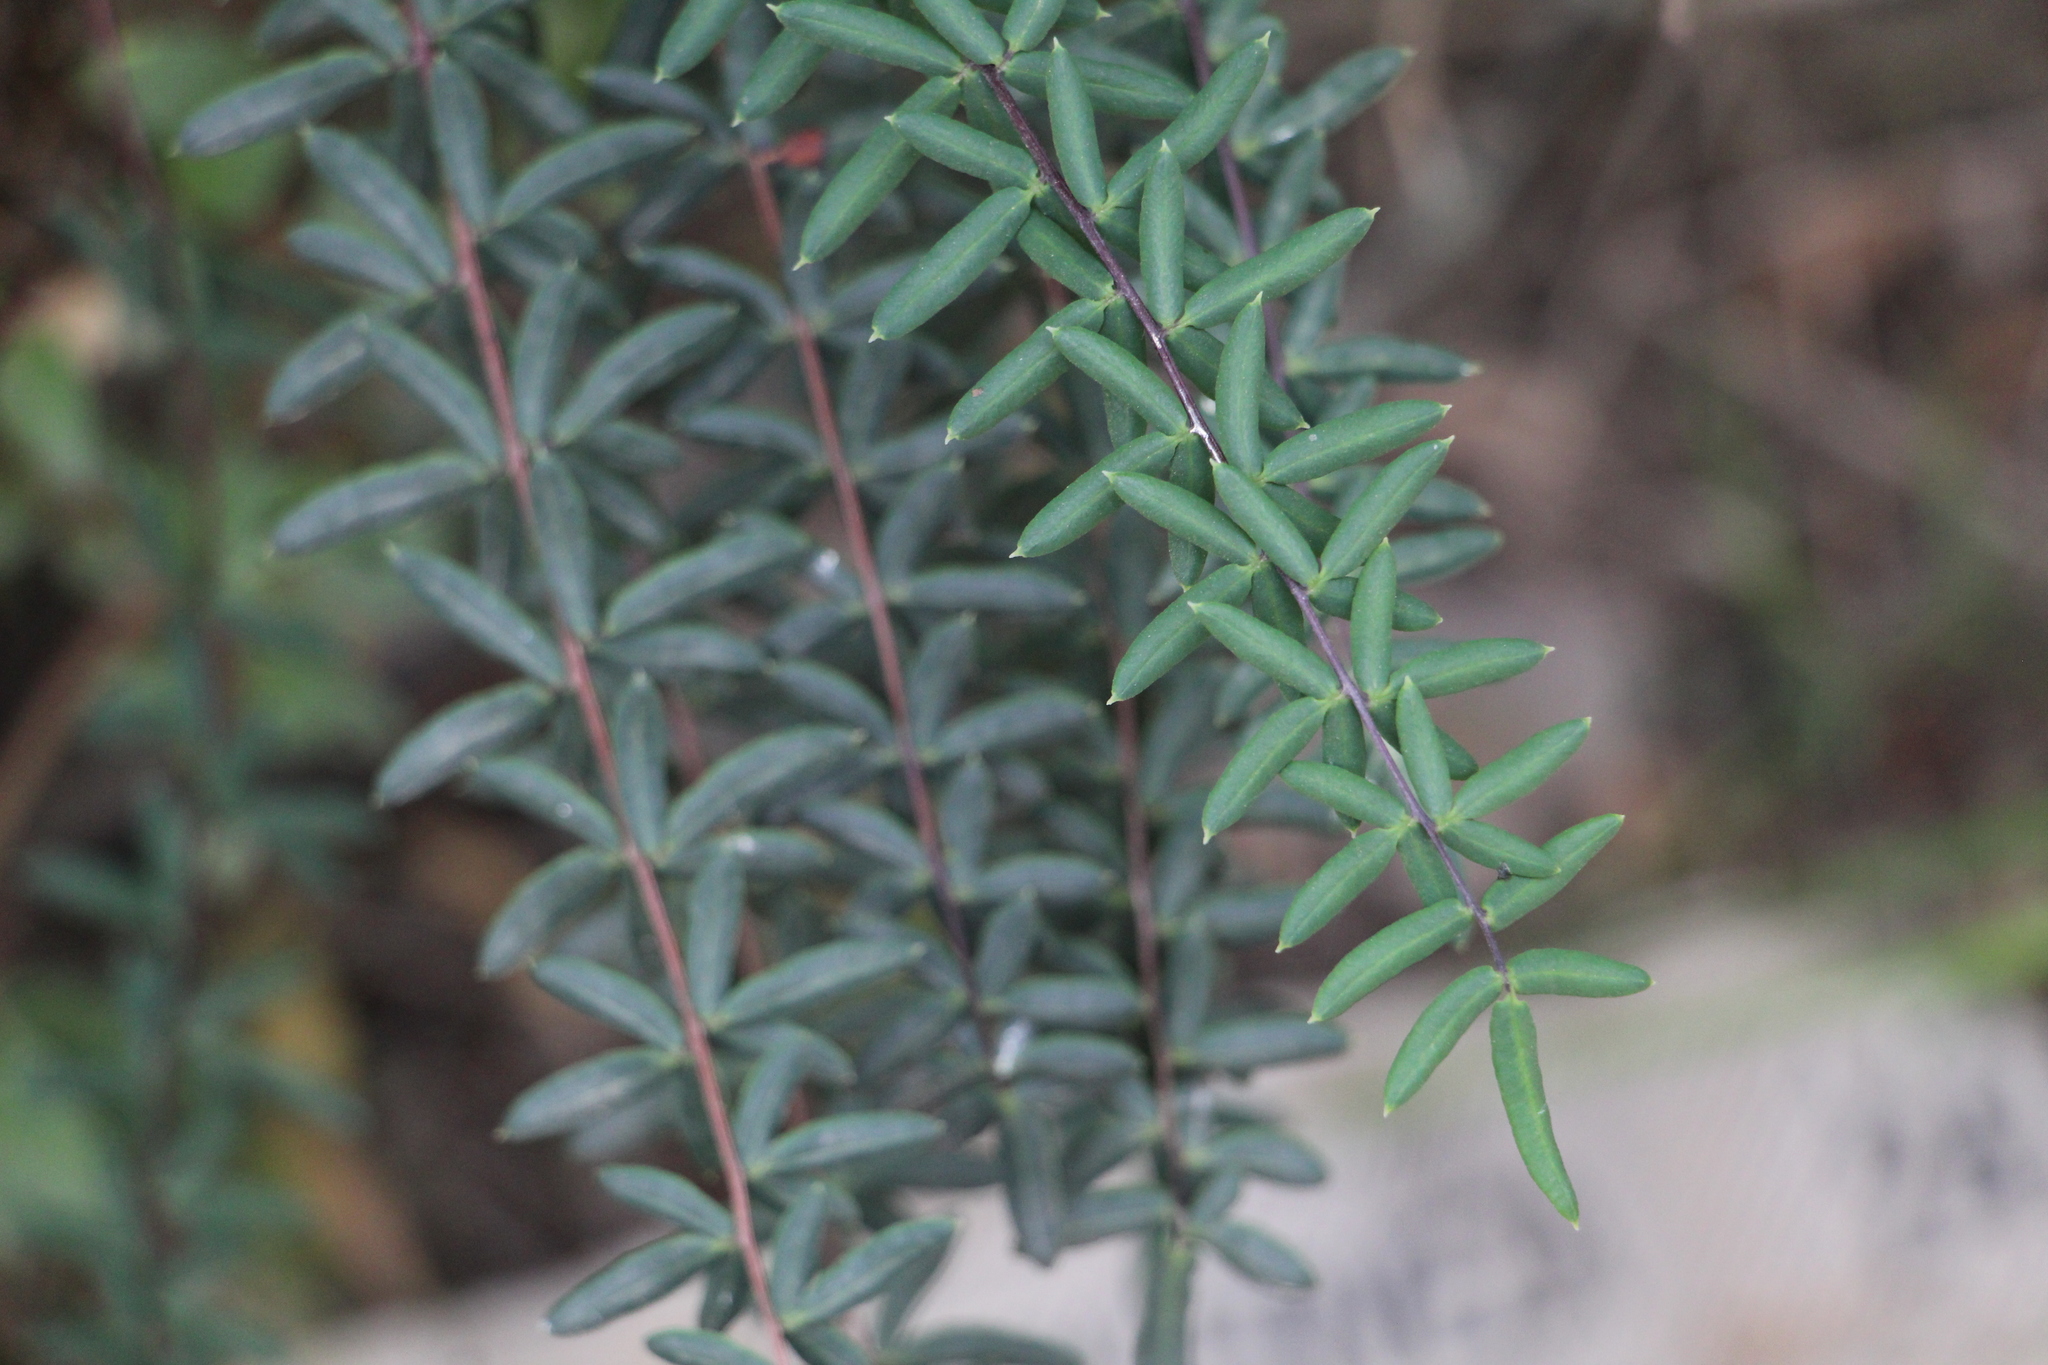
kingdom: Plantae
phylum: Tracheophyta
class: Polypodiopsida
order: Polypodiales
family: Pteridaceae
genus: Pellaea
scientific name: Pellaea ternifolia
